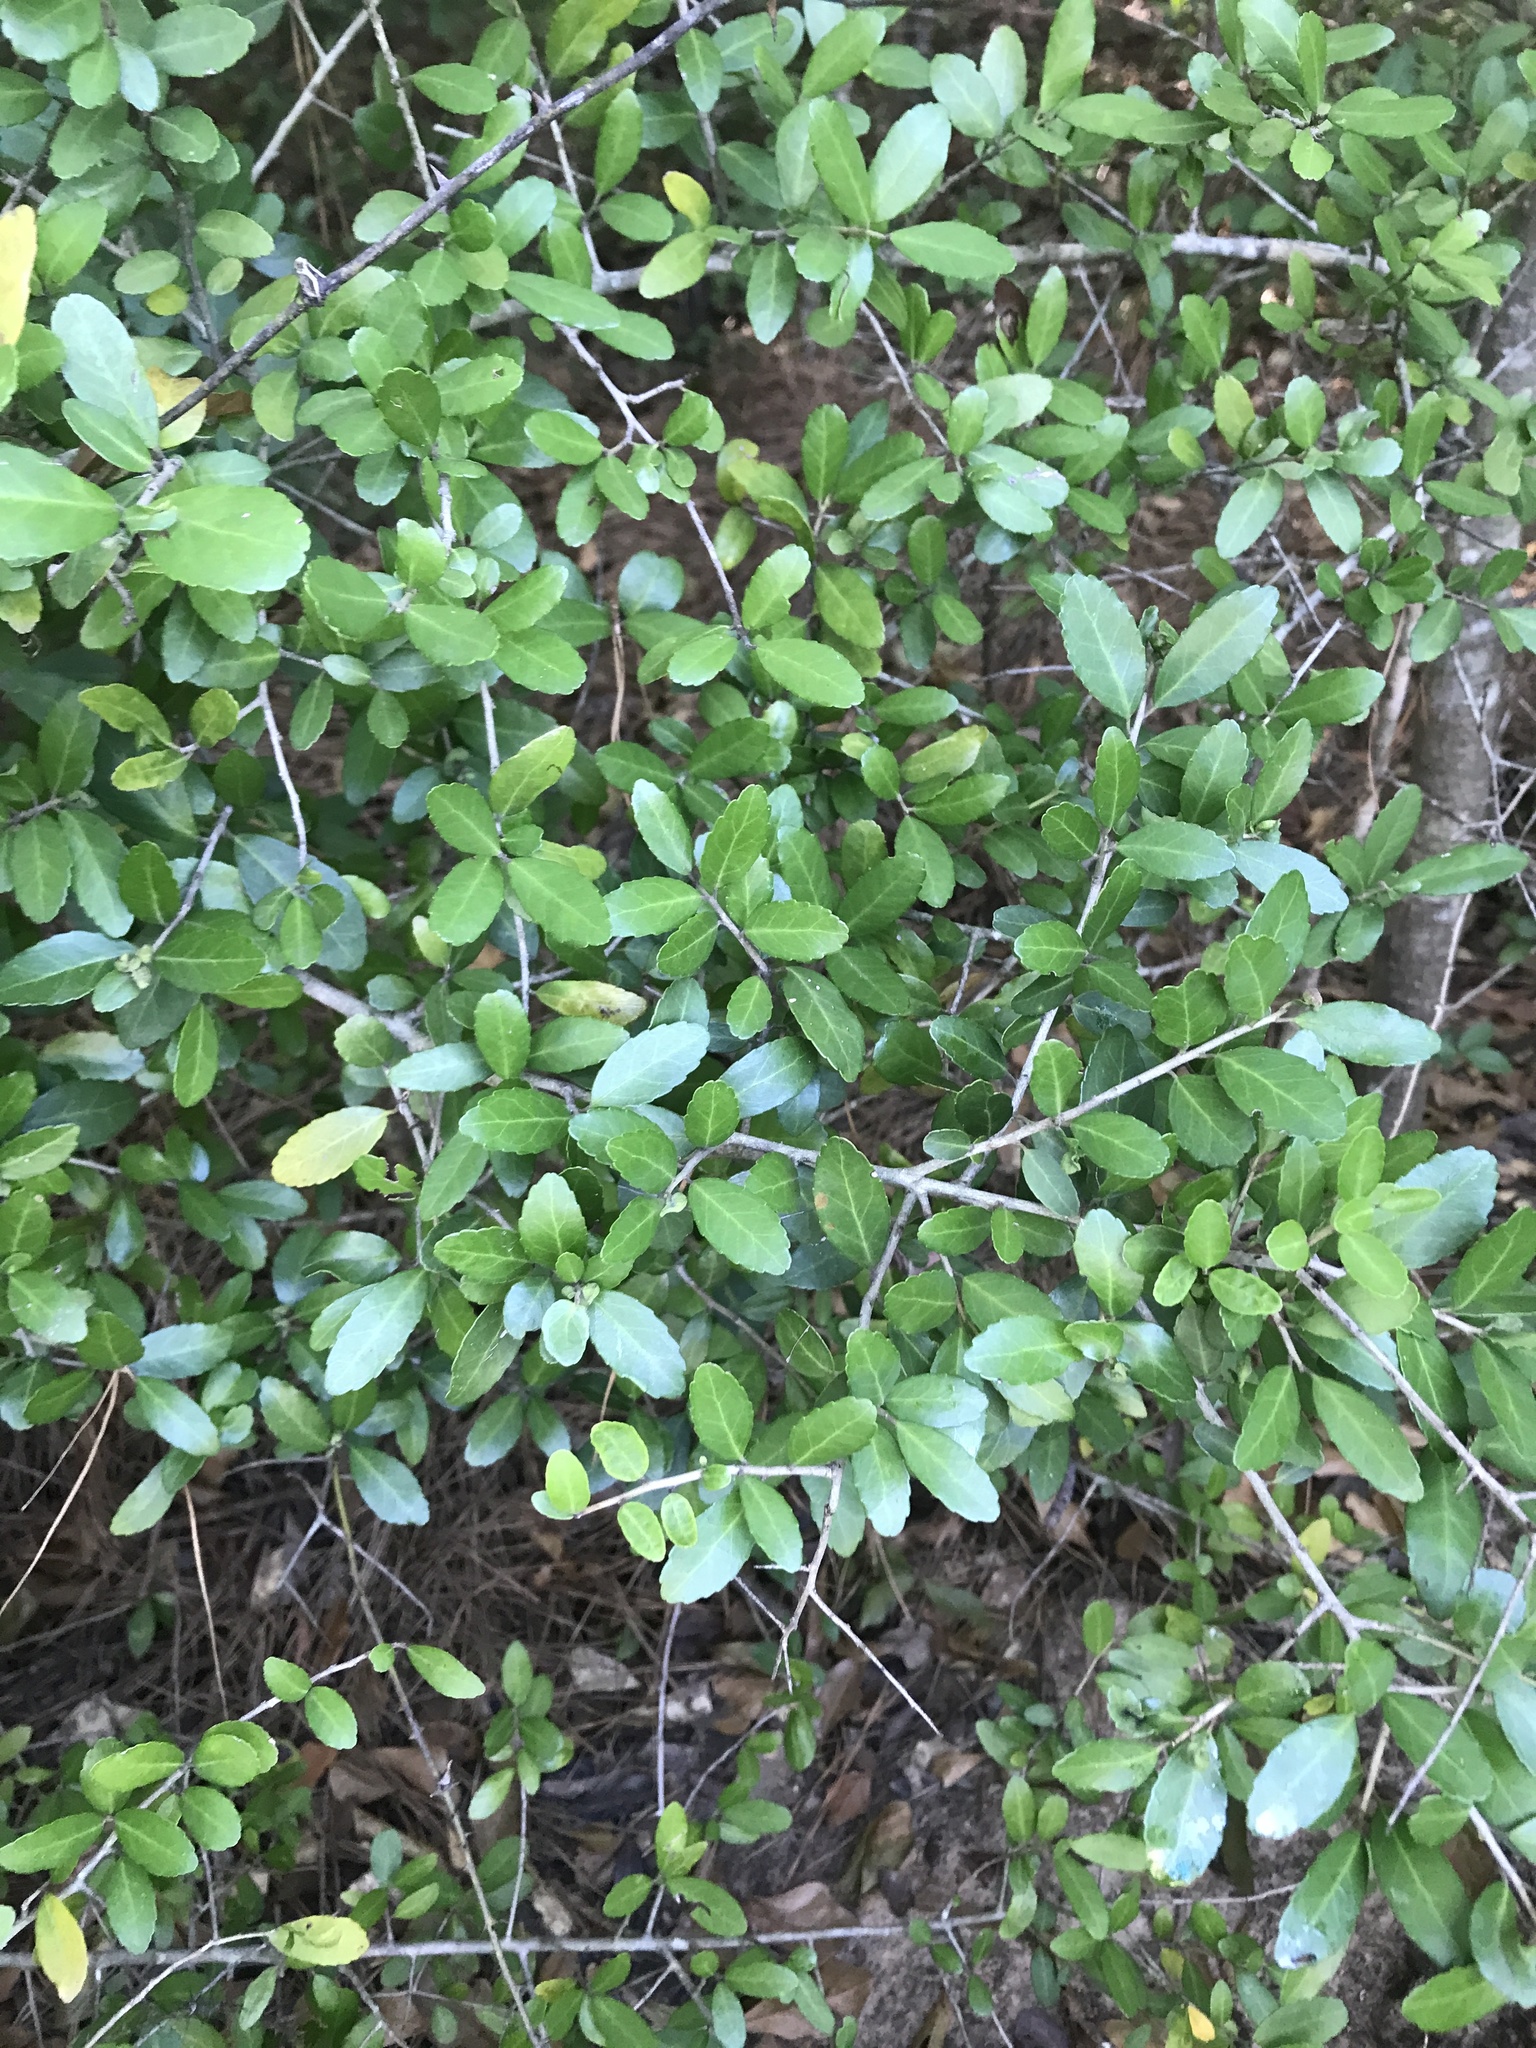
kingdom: Plantae
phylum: Tracheophyta
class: Magnoliopsida
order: Aquifoliales
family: Aquifoliaceae
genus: Ilex
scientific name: Ilex vomitoria
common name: Yaupon holly
